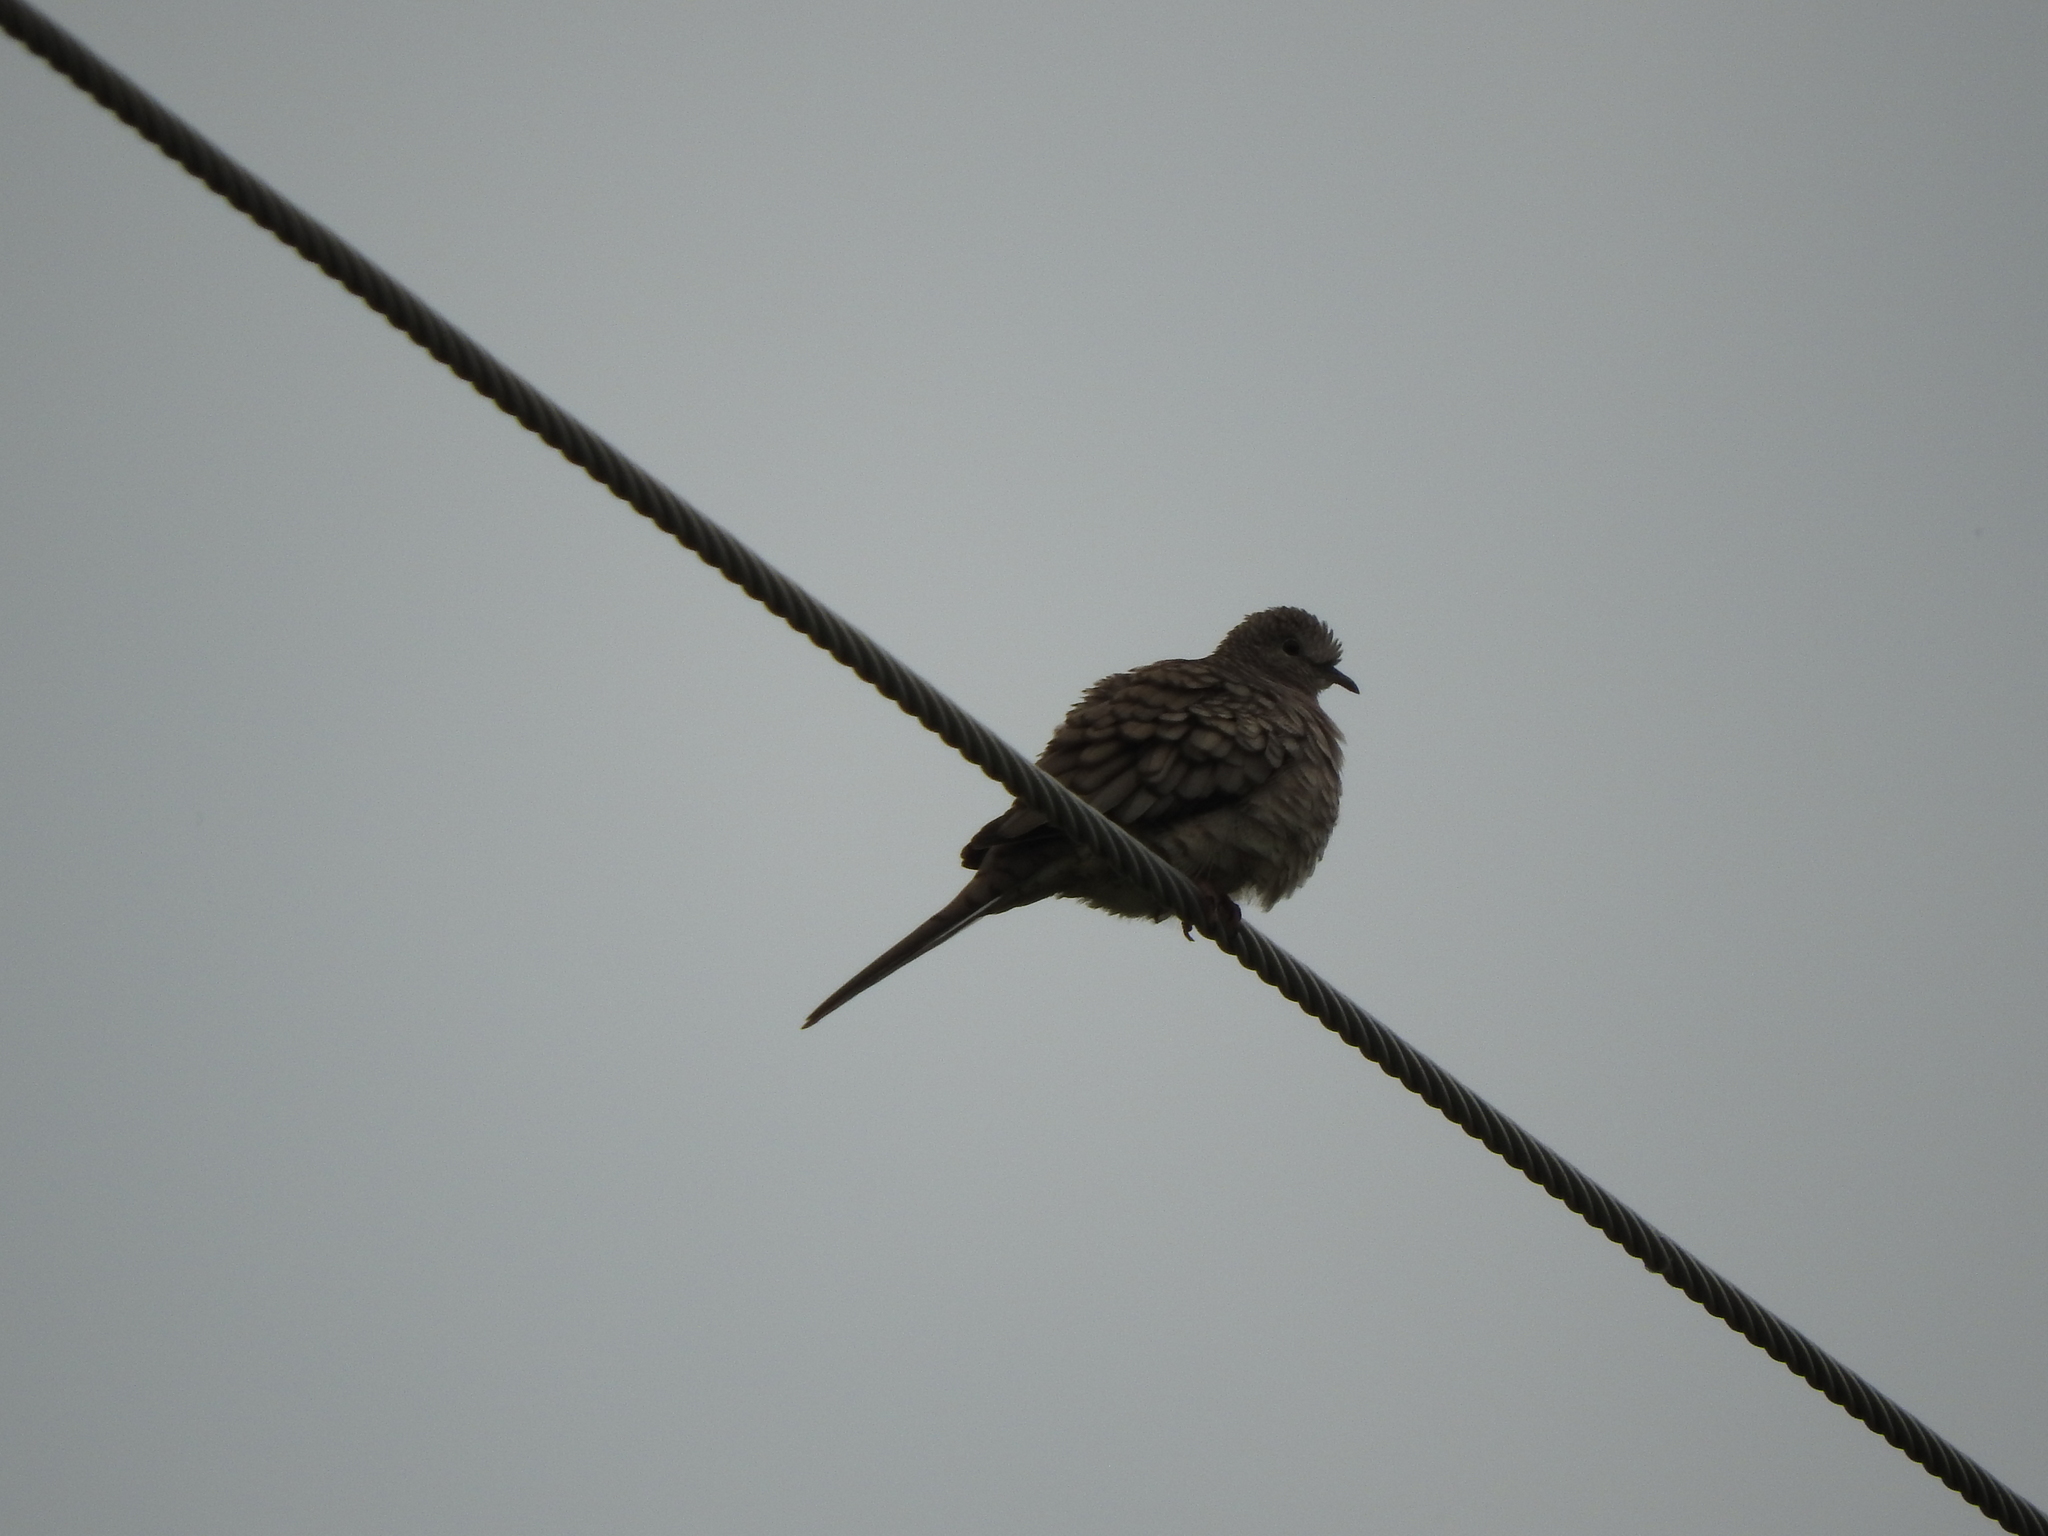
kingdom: Animalia
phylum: Chordata
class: Aves
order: Columbiformes
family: Columbidae
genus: Columbina
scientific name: Columbina inca
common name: Inca dove
